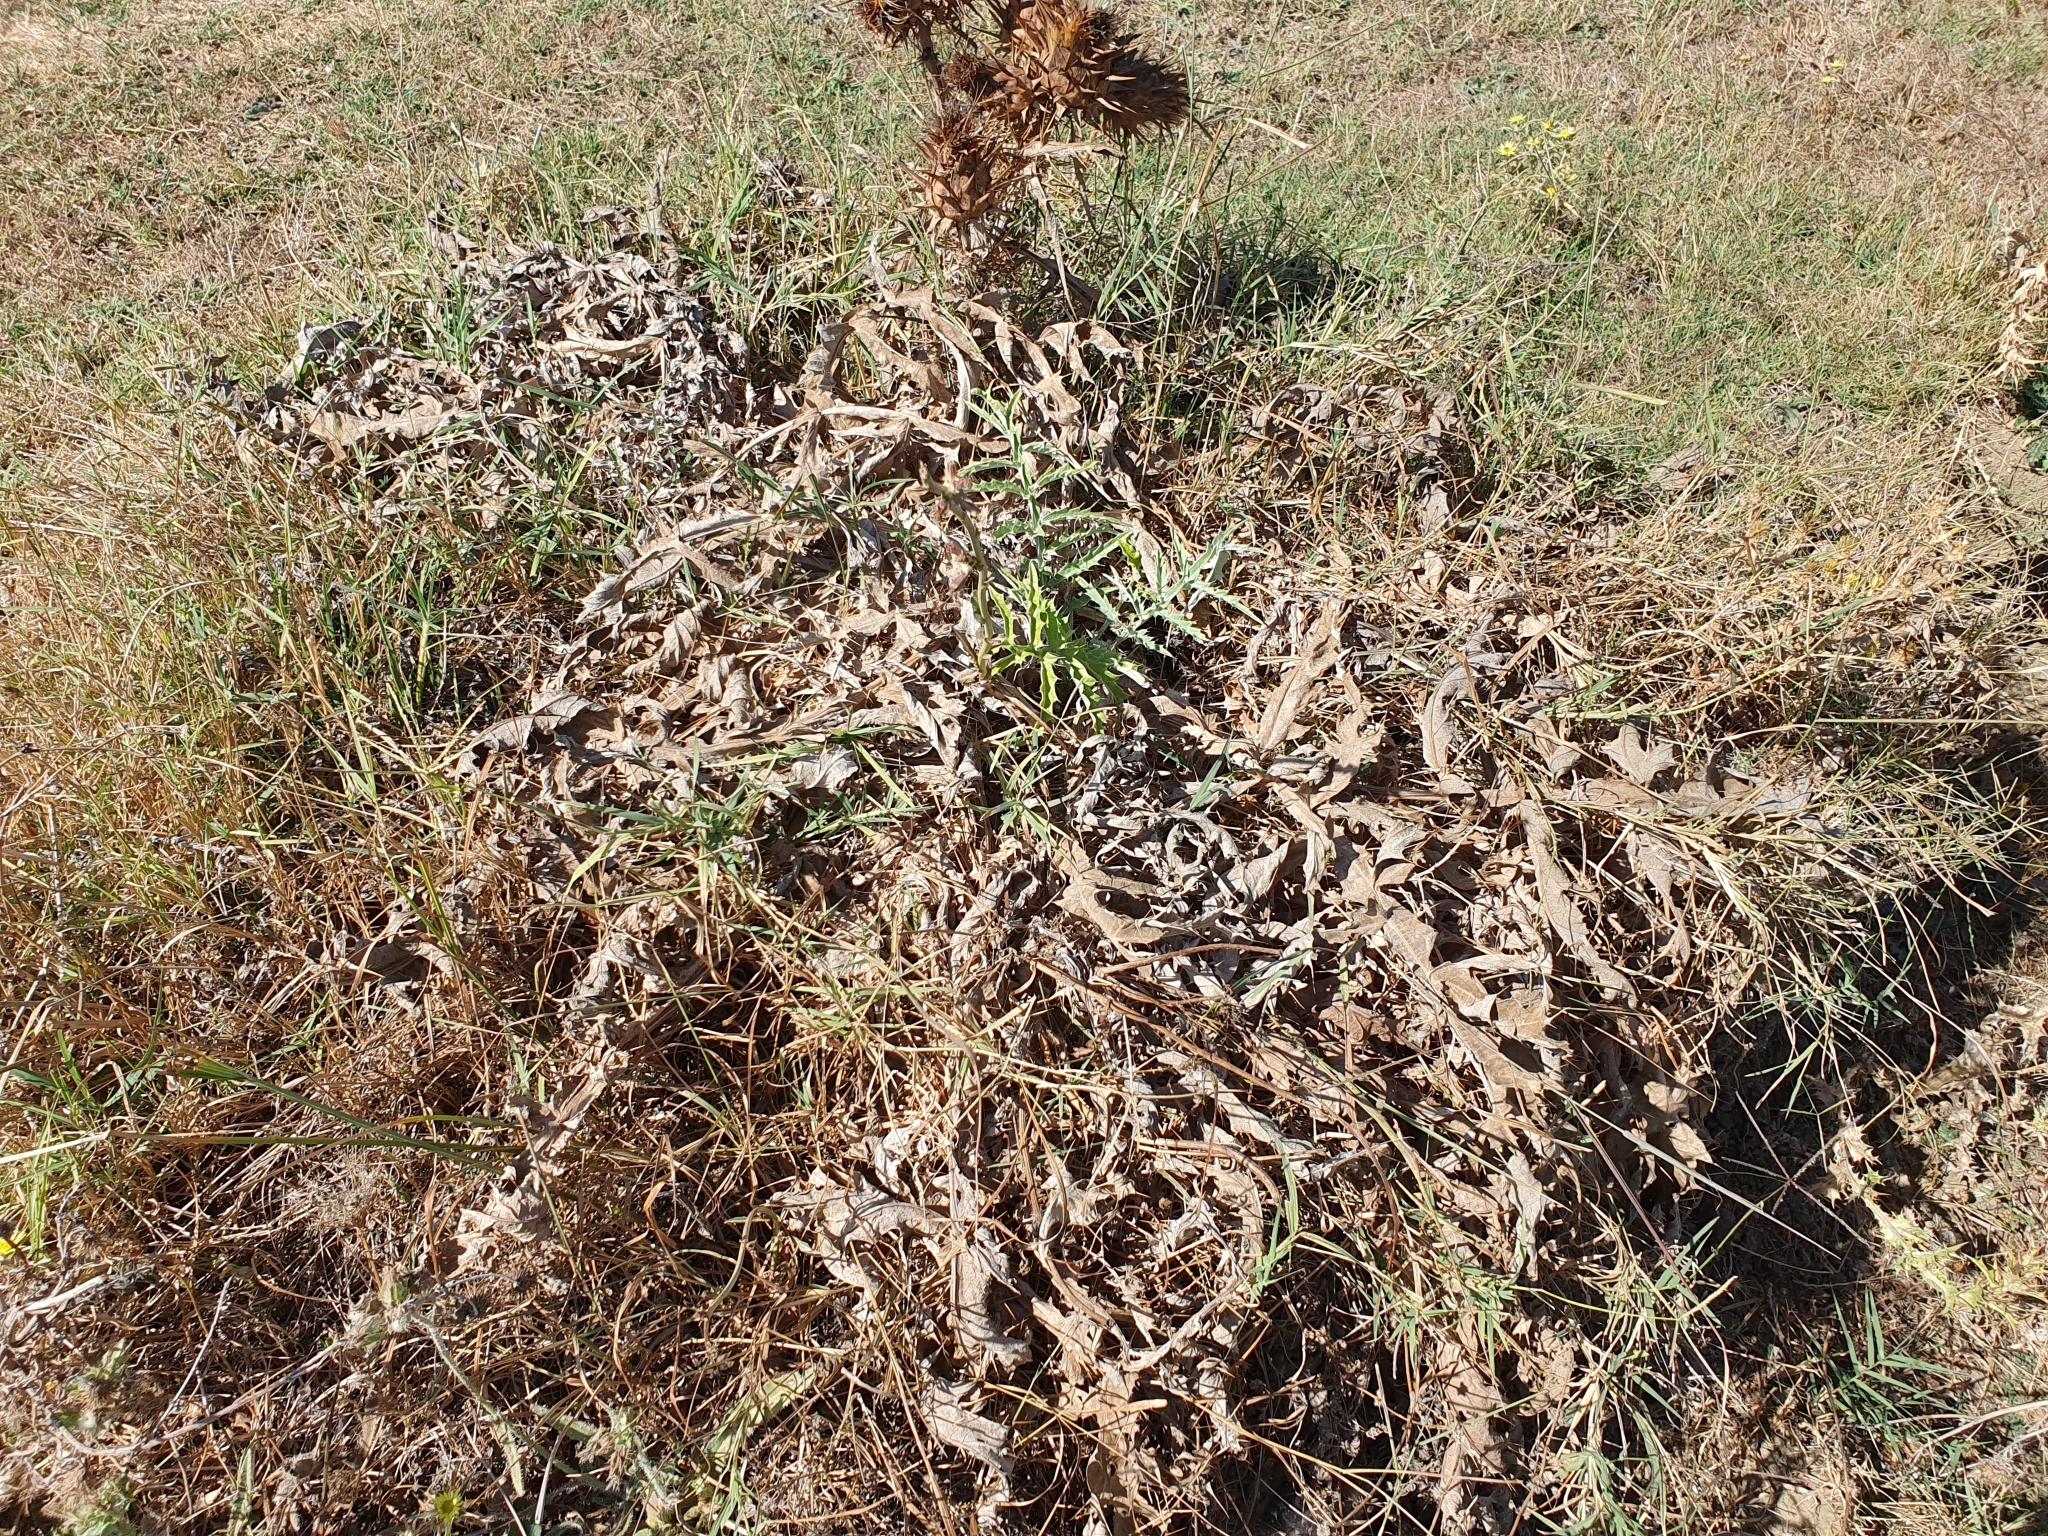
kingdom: Plantae
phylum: Tracheophyta
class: Magnoliopsida
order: Asterales
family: Asteraceae
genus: Cynara
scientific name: Cynara cardunculus
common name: Globe artichoke
